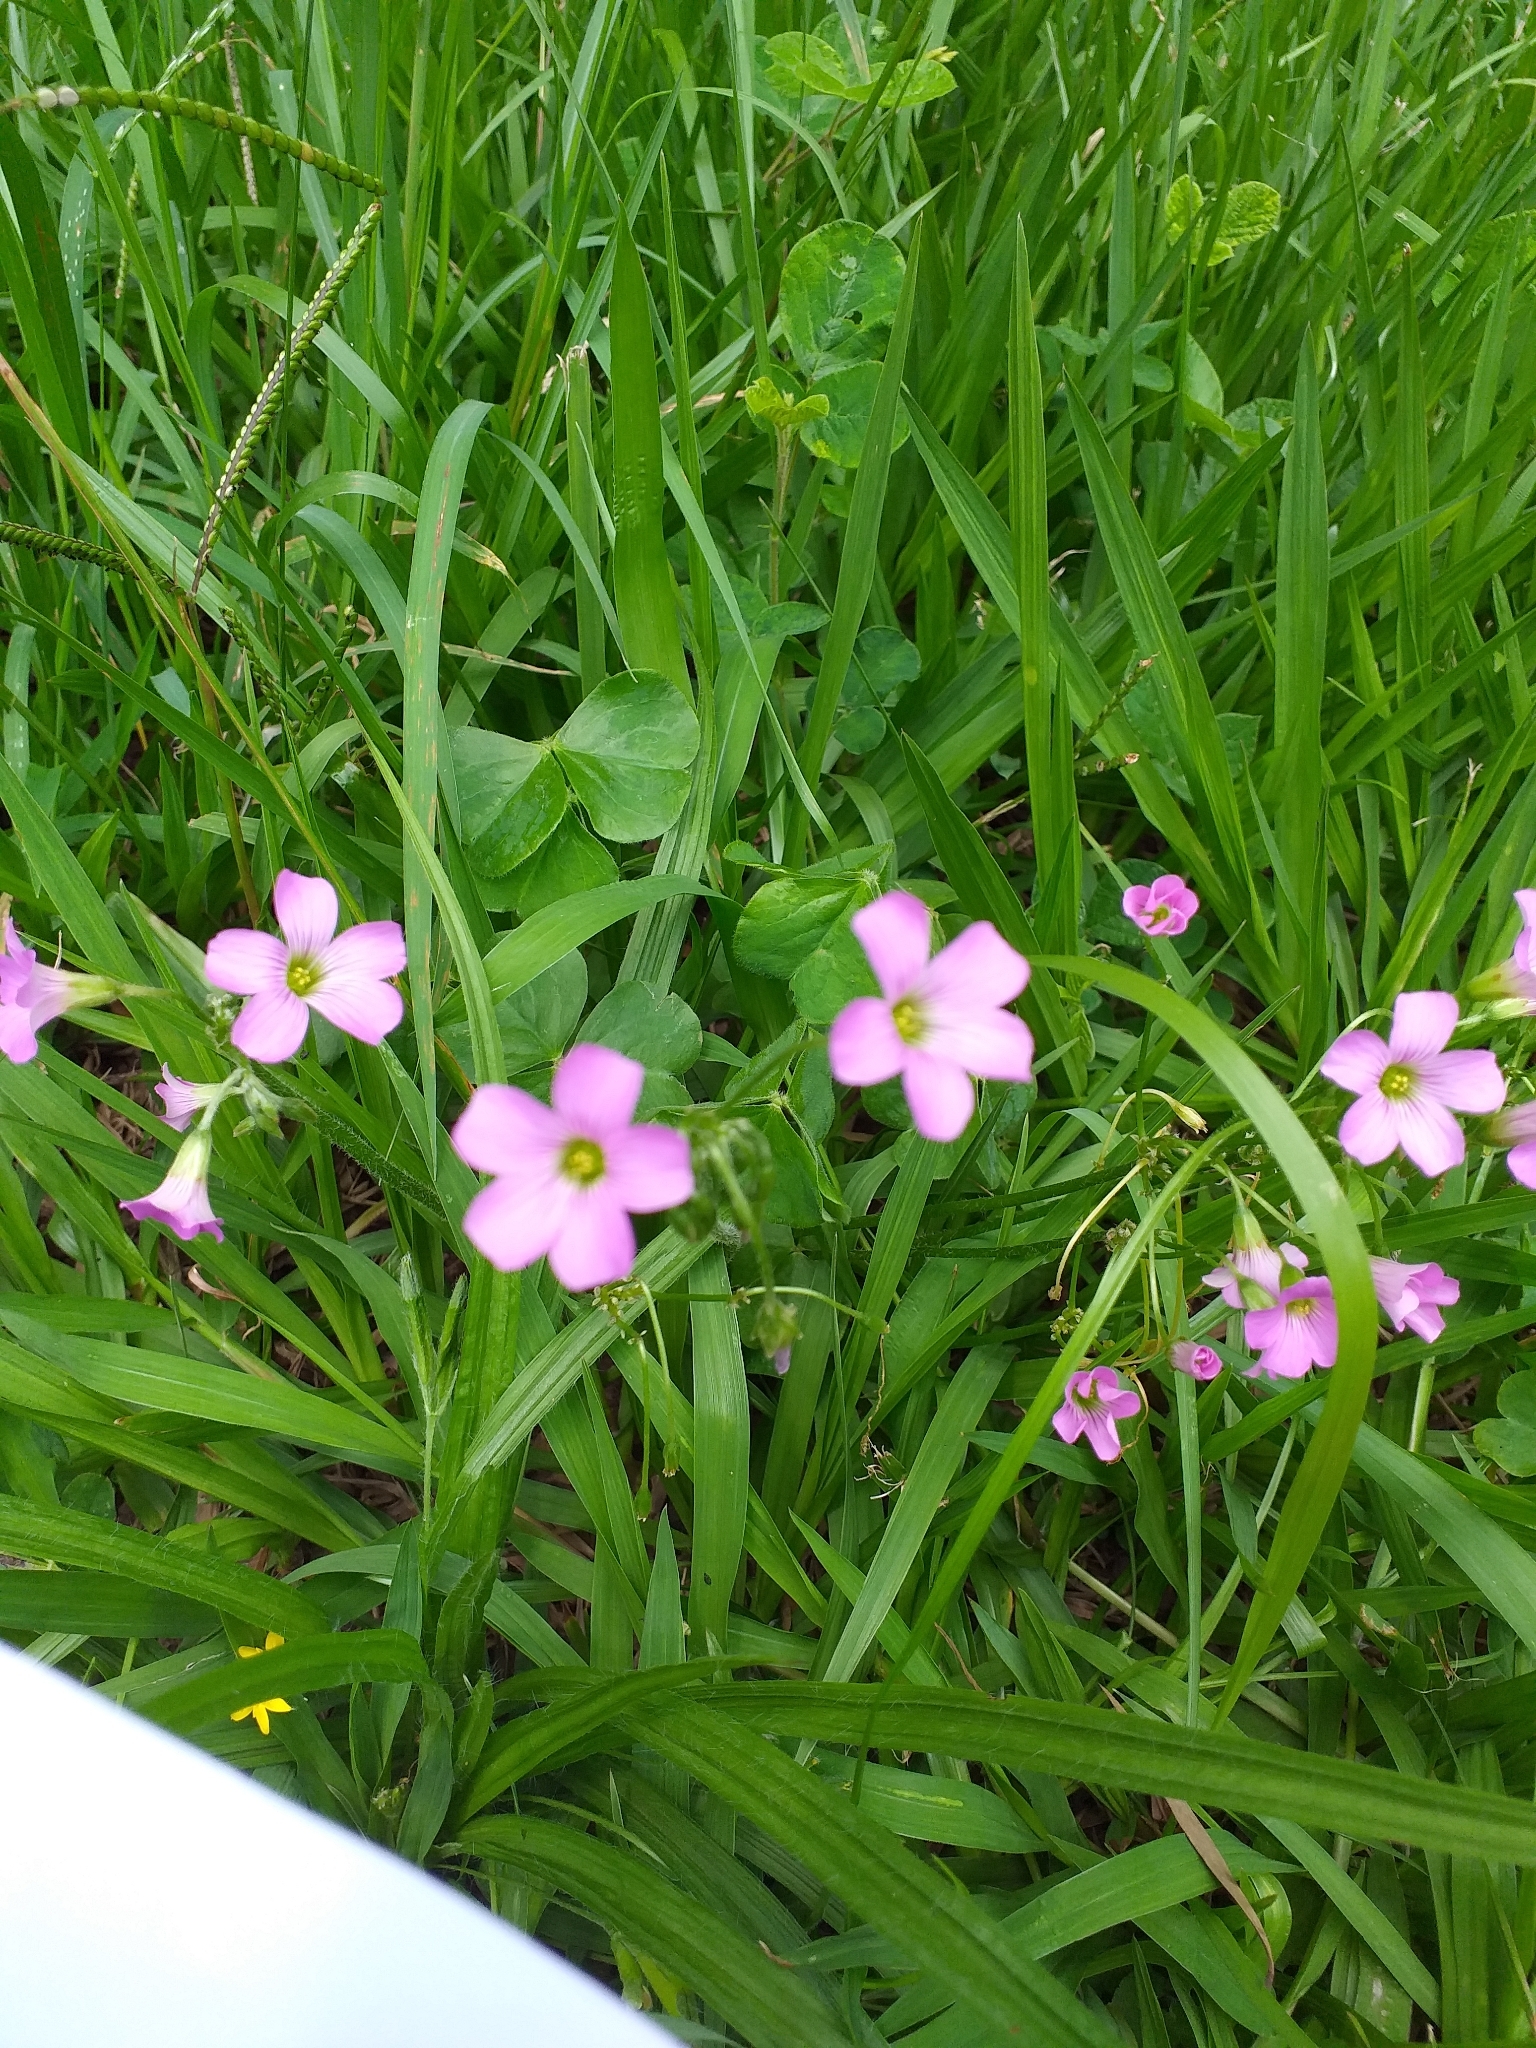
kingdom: Plantae
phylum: Tracheophyta
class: Magnoliopsida
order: Oxalidales
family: Oxalidaceae
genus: Oxalis
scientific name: Oxalis debilis
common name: Large-flowered pink-sorrel
